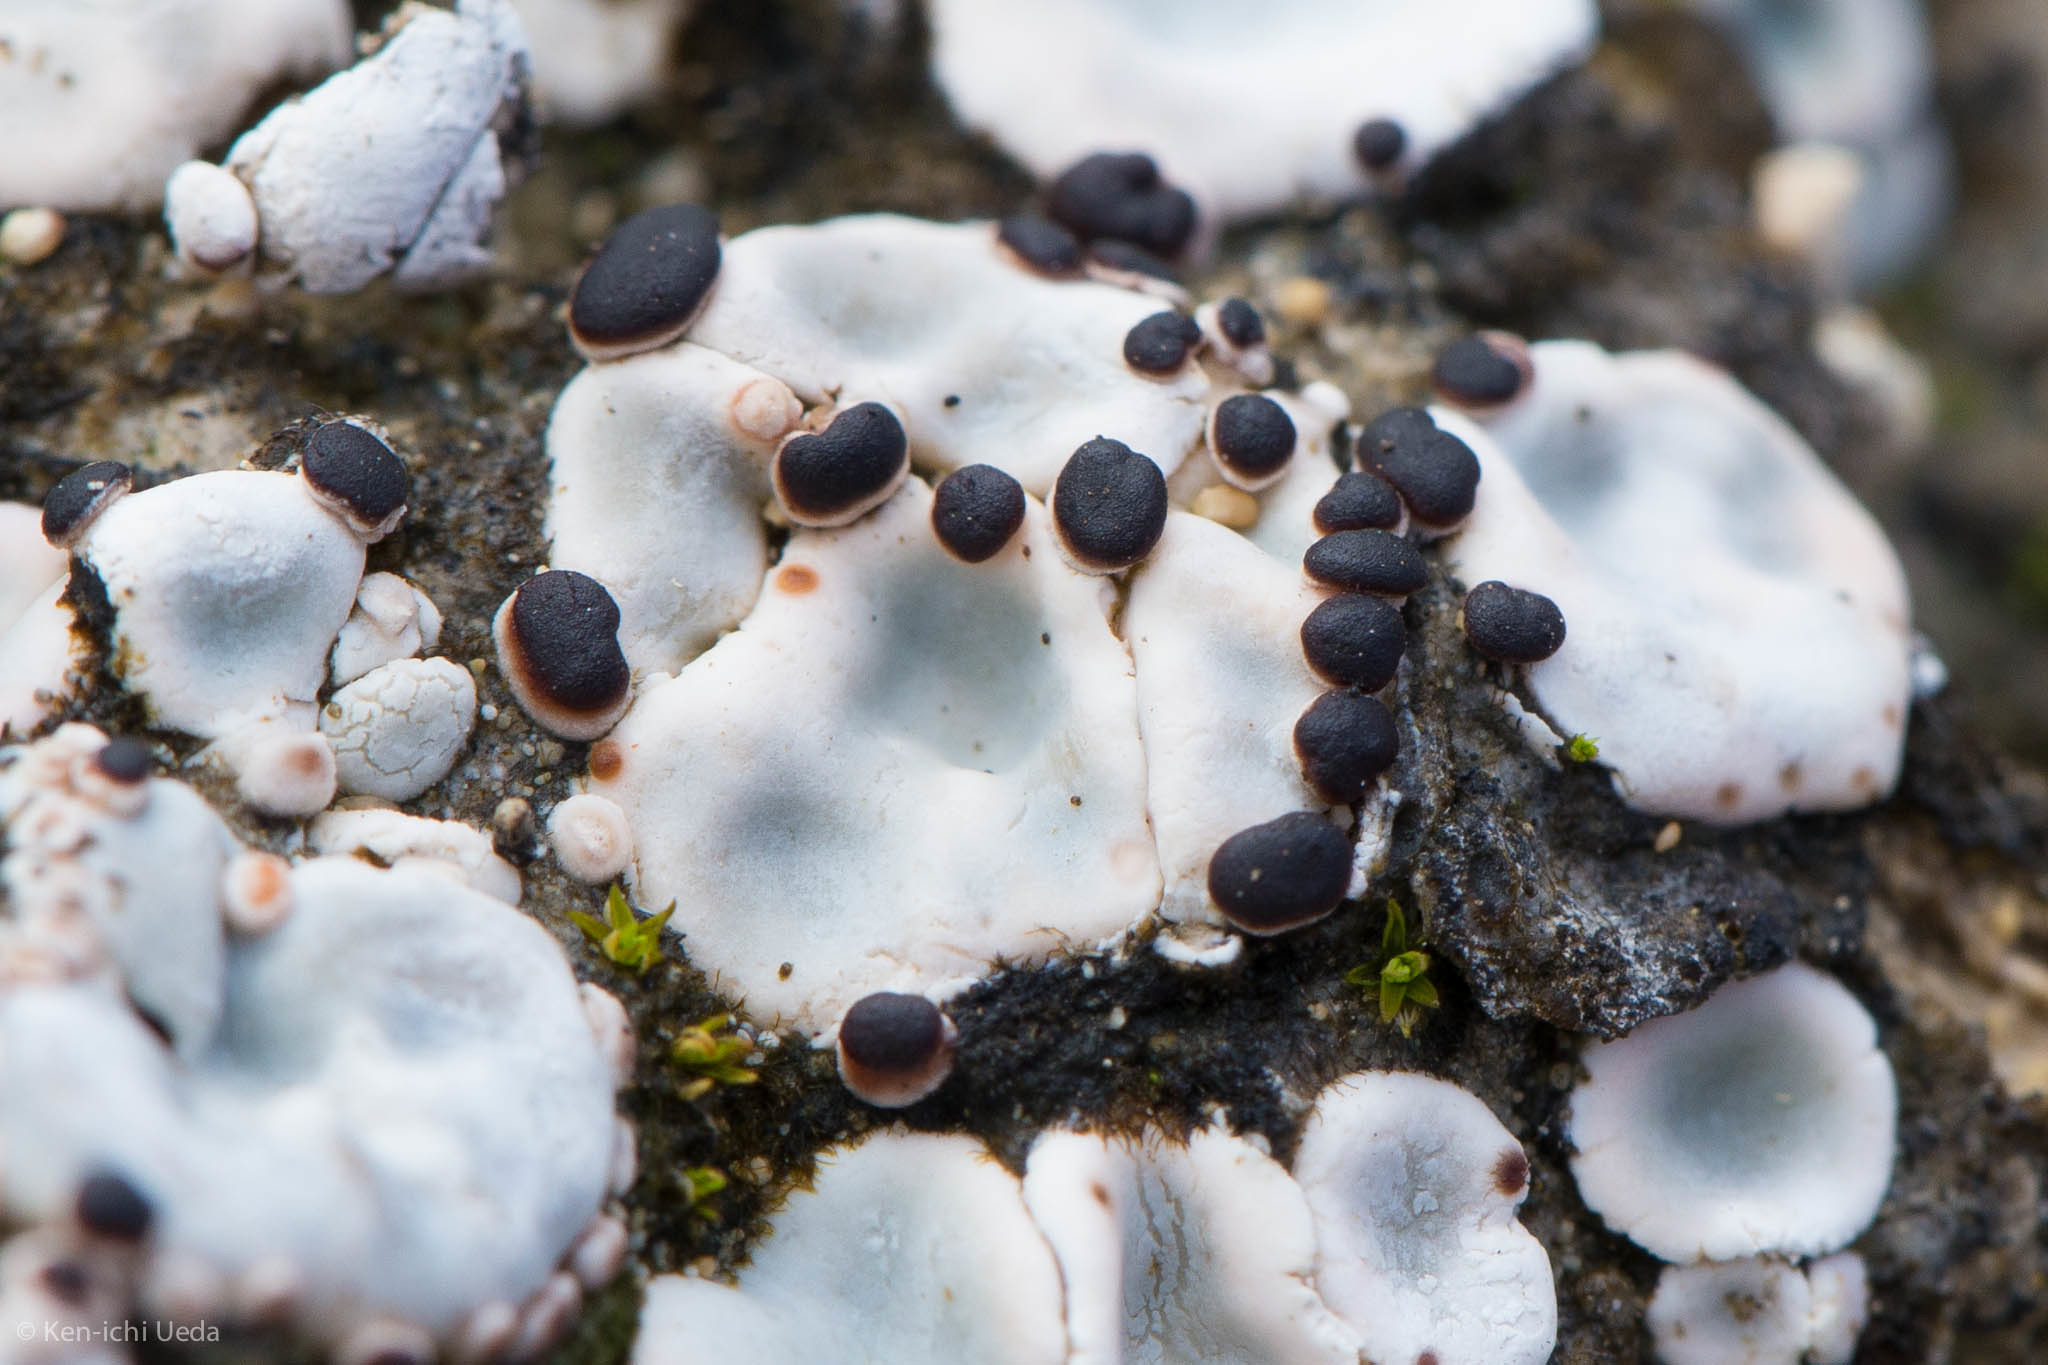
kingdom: Fungi
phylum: Ascomycota
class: Lecanoromycetes
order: Lecanorales
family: Psoraceae
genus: Psora
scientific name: Psora crenata
